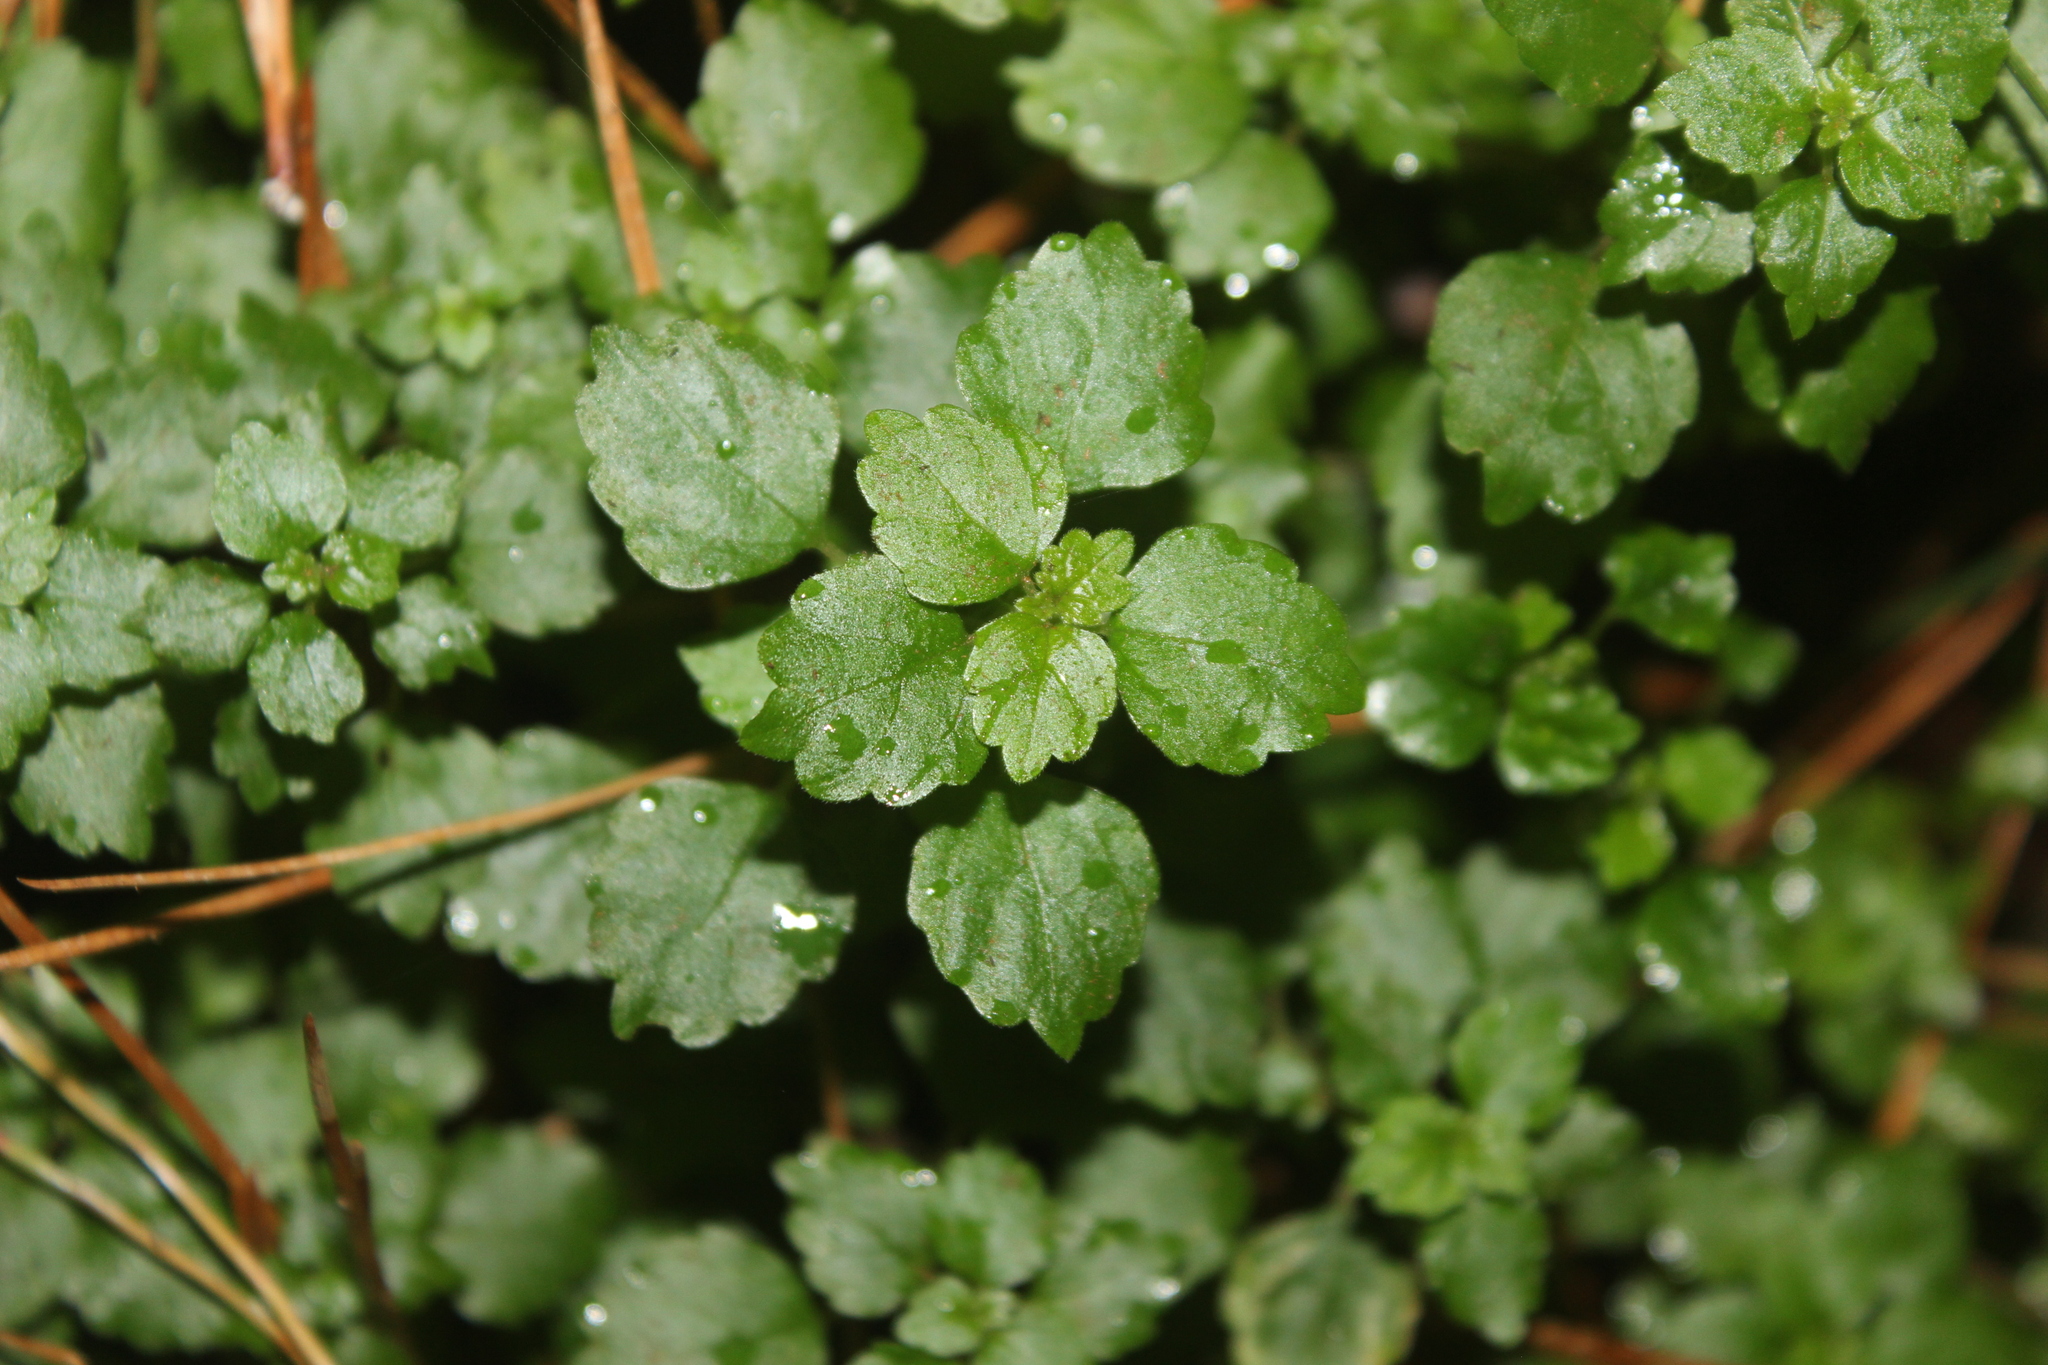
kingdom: Plantae
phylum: Tracheophyta
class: Magnoliopsida
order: Rosales
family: Urticaceae
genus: Australina
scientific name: Australina pusilla
